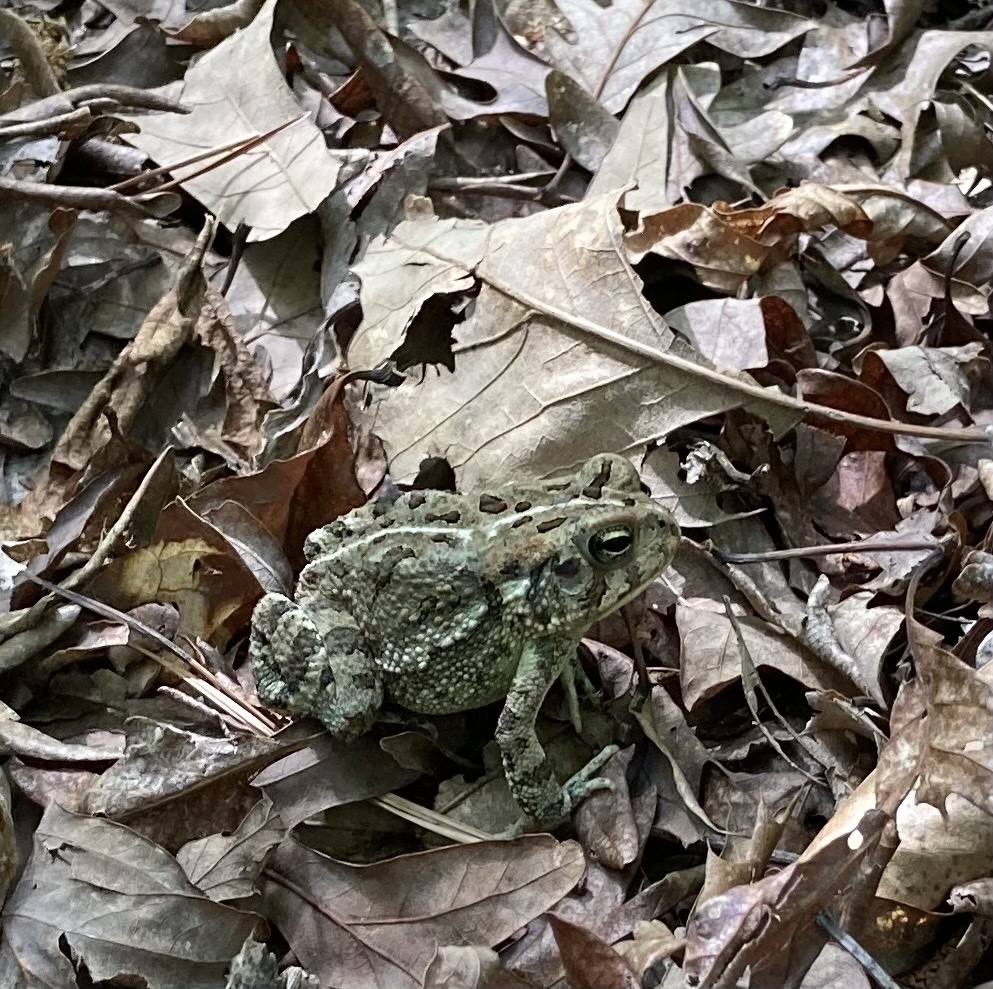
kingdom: Animalia
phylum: Chordata
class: Amphibia
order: Anura
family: Bufonidae
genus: Anaxyrus
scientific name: Anaxyrus fowleri
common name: Fowler's toad
